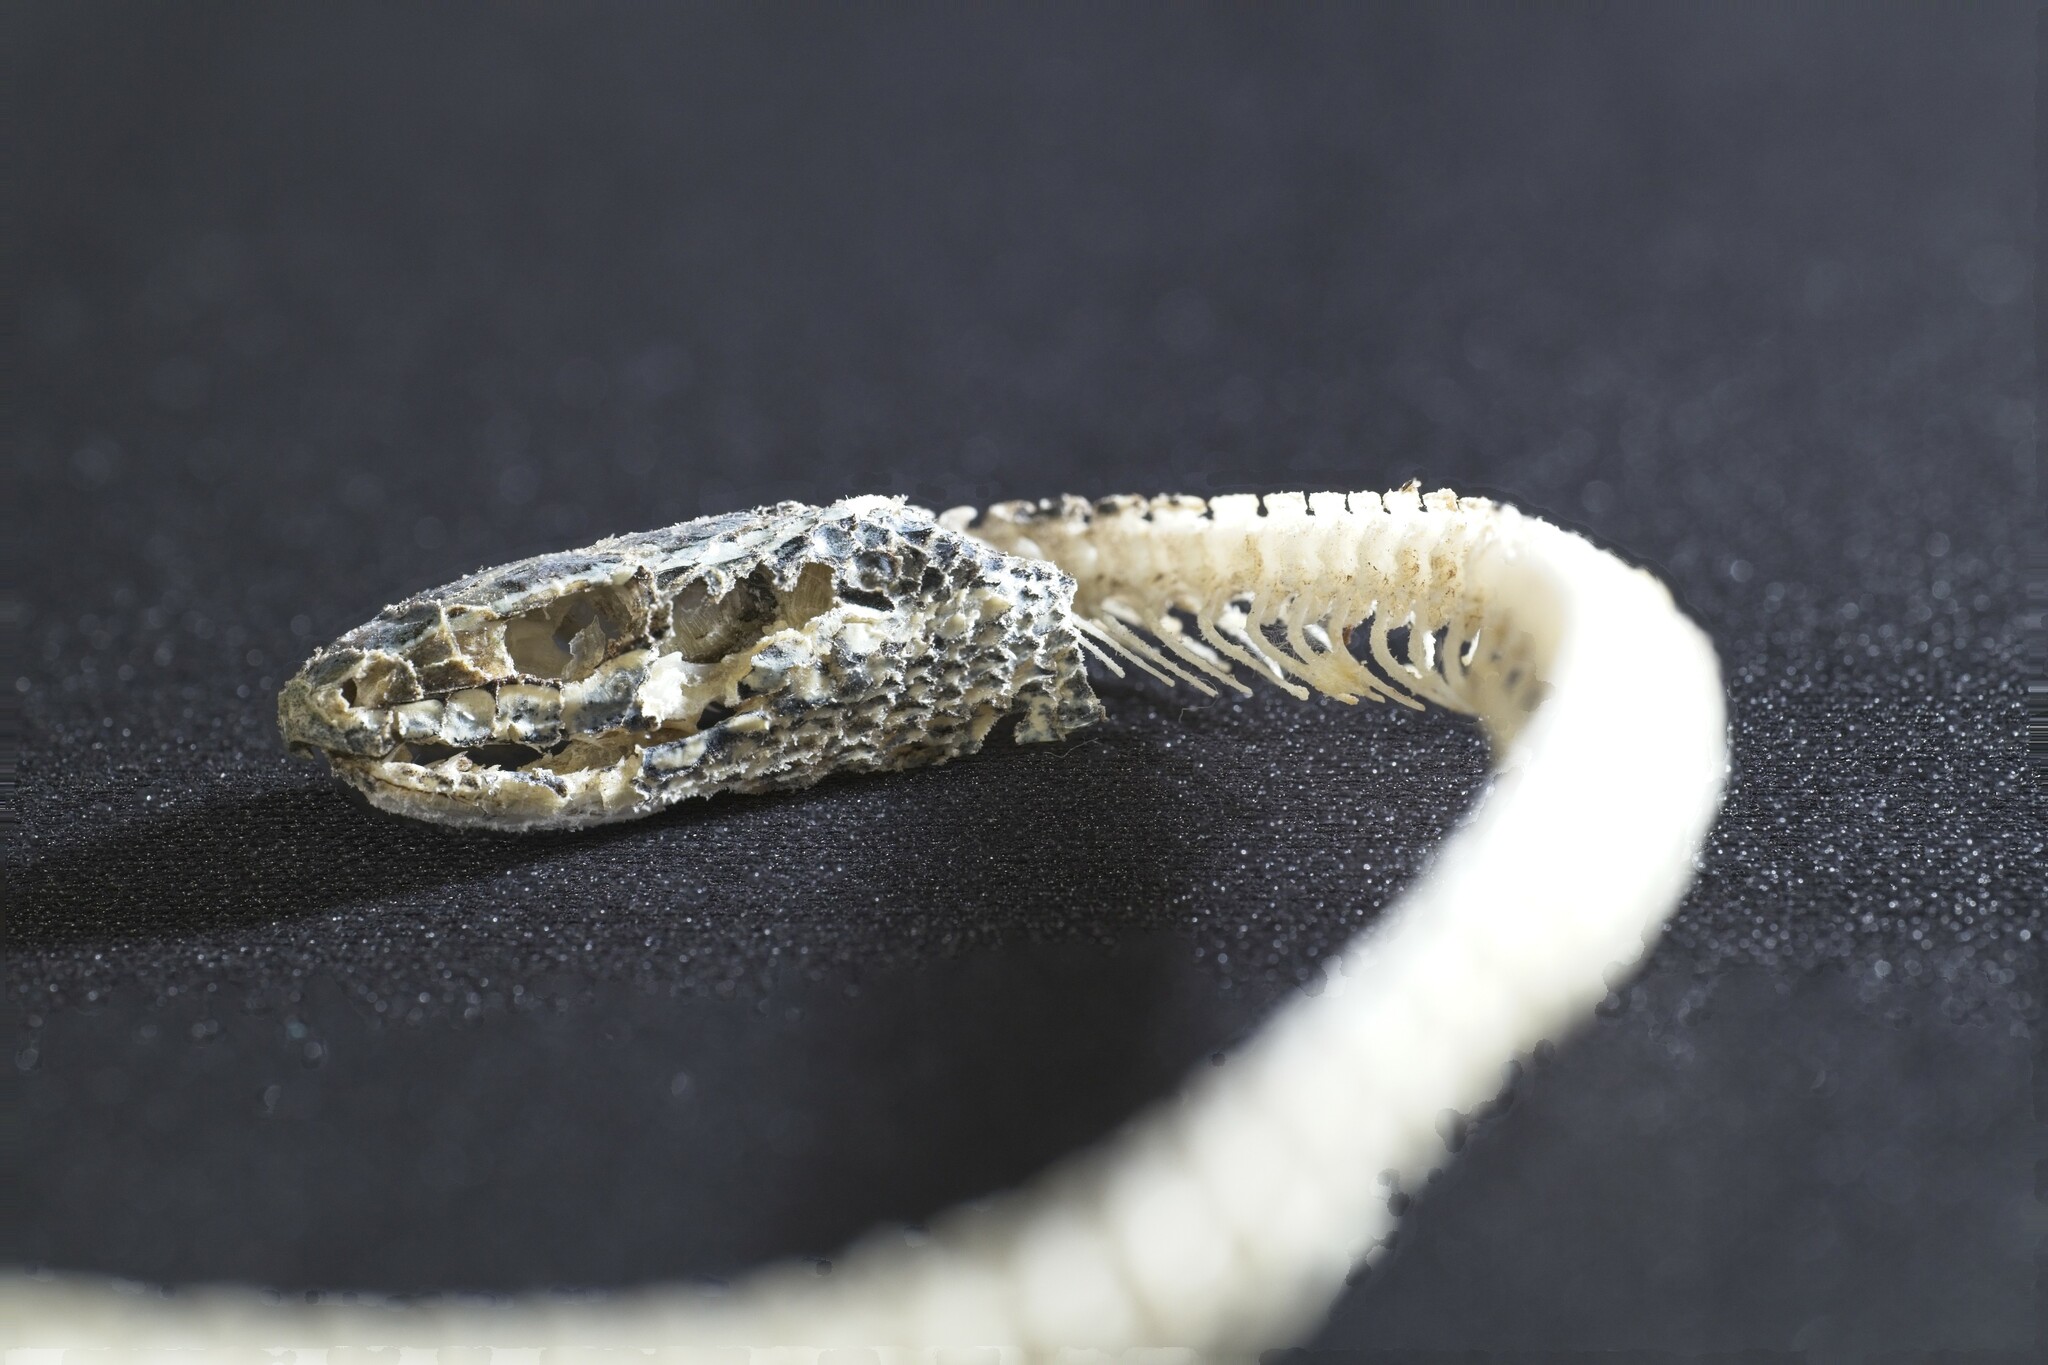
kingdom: Animalia
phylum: Chordata
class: Squamata
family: Colubridae
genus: Philodryas
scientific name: Philodryas chamissonis
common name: Chilean green racer
